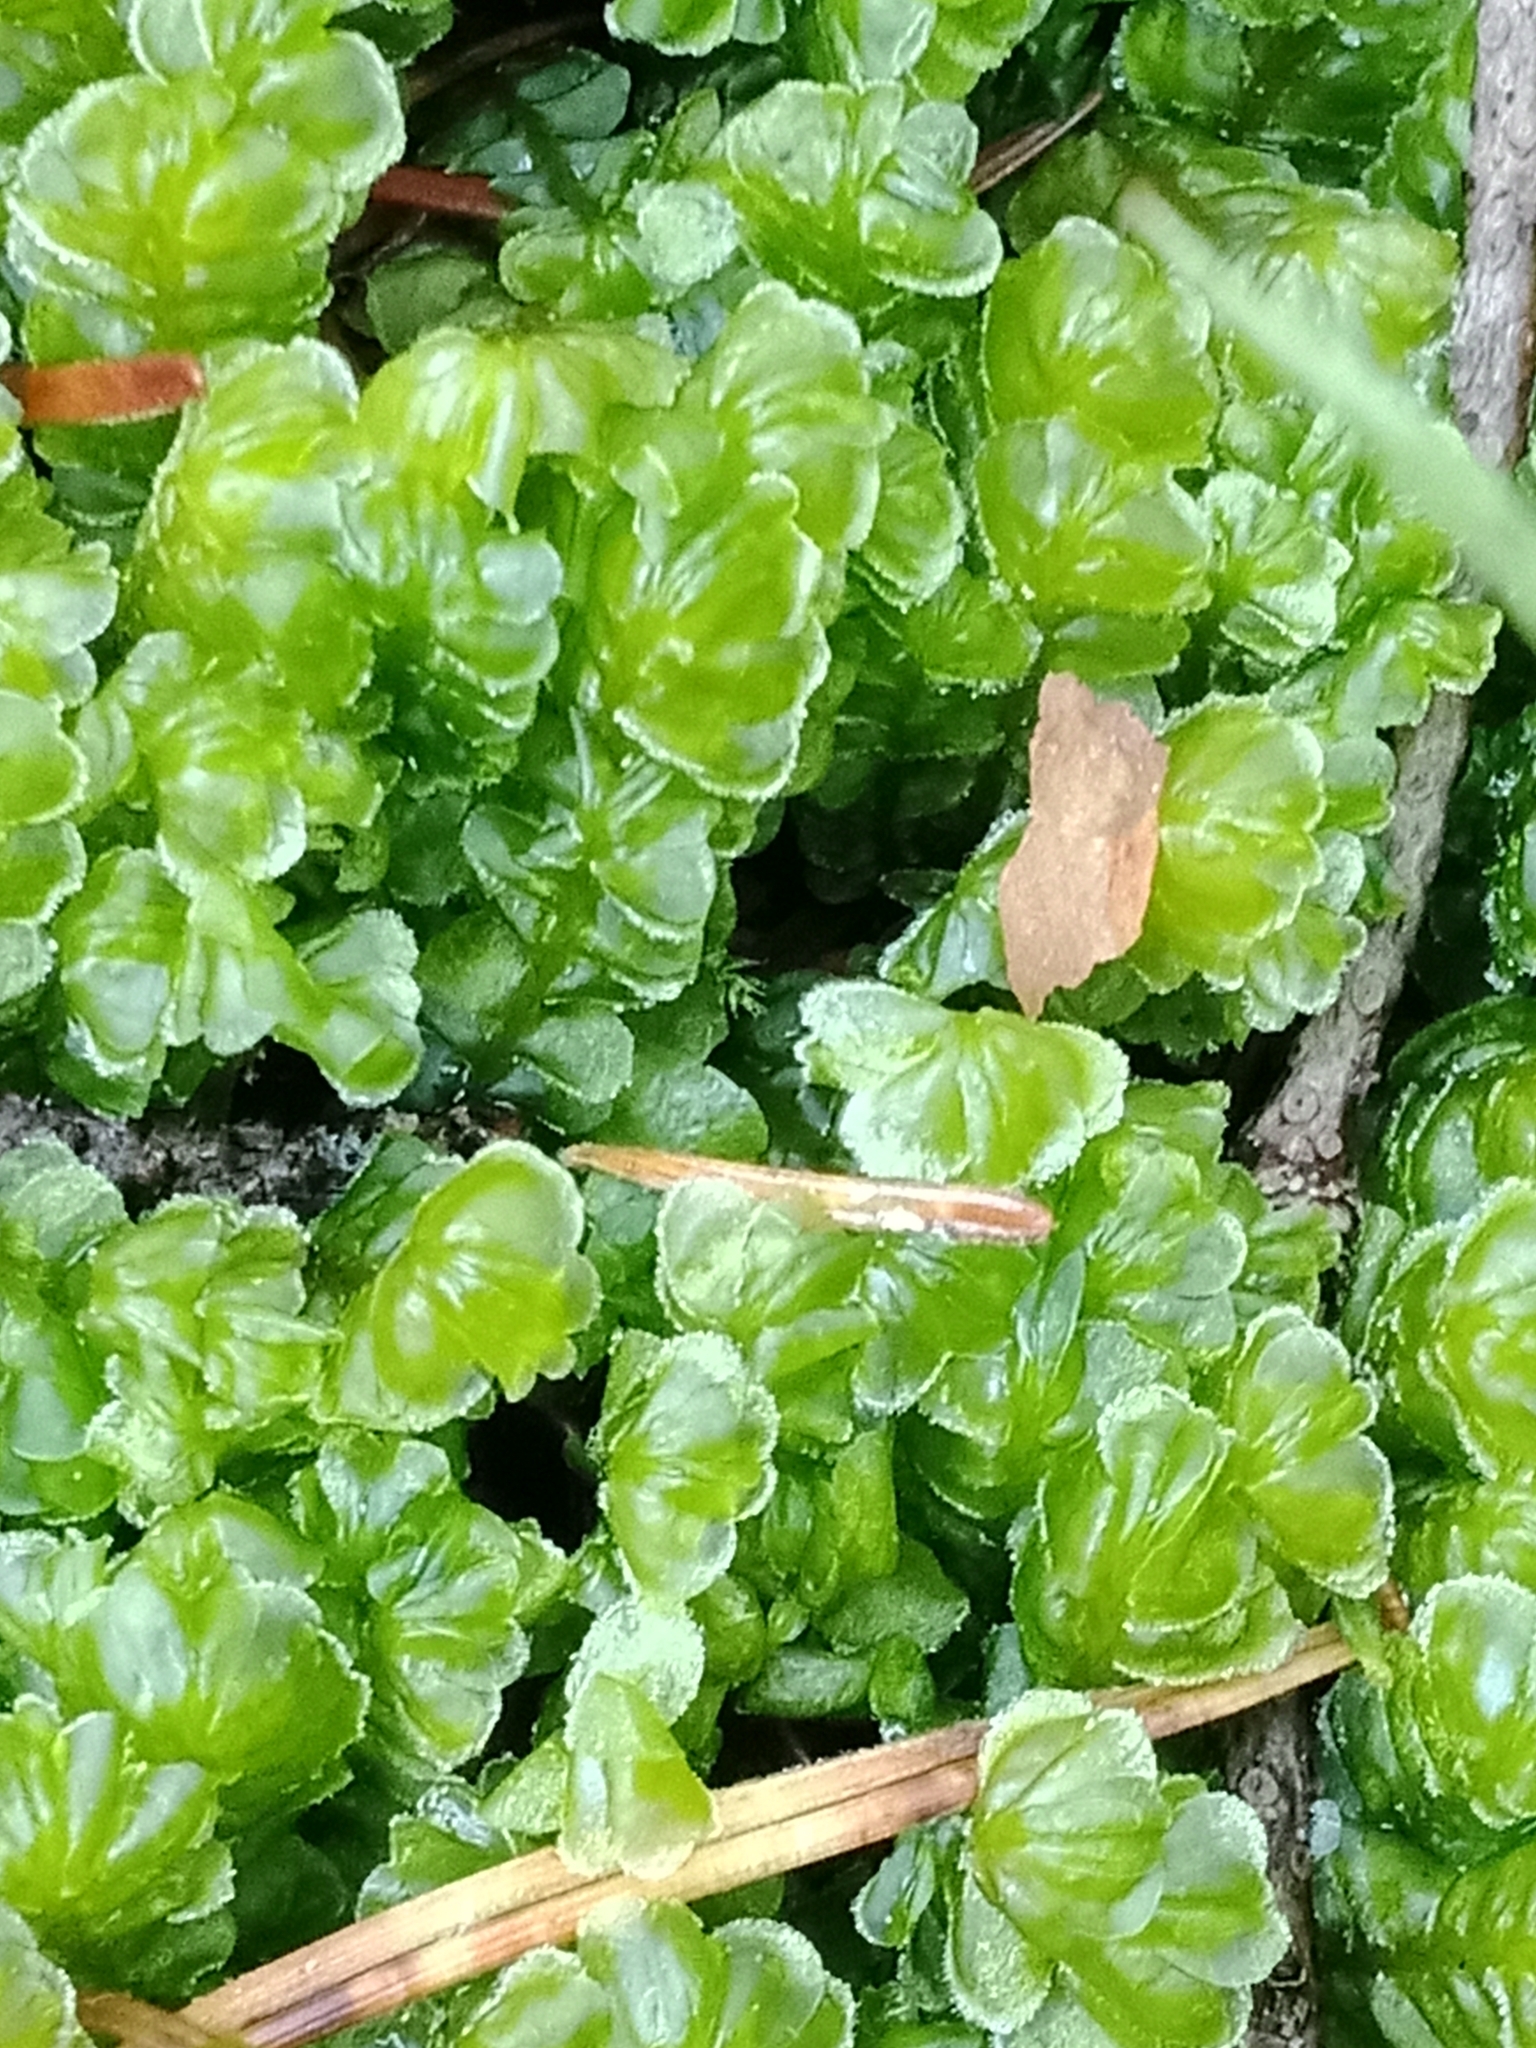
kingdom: Plantae
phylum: Marchantiophyta
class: Jungermanniopsida
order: Jungermanniales
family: Plagiochilaceae
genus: Plagiochila
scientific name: Plagiochila asplenioides
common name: Greater featherwort
